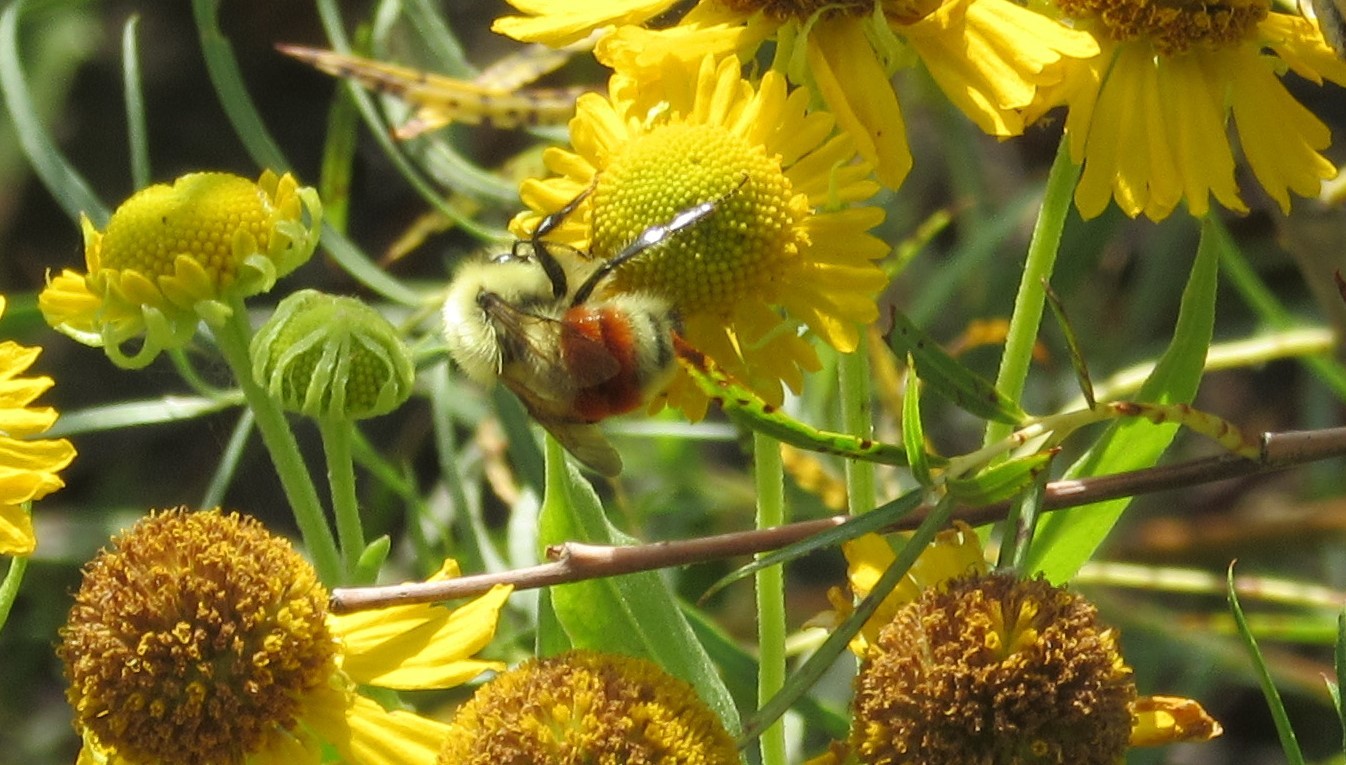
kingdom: Animalia
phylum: Arthropoda
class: Insecta
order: Hymenoptera
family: Apidae
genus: Bombus
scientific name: Bombus huntii
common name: Hunt bumble bee
